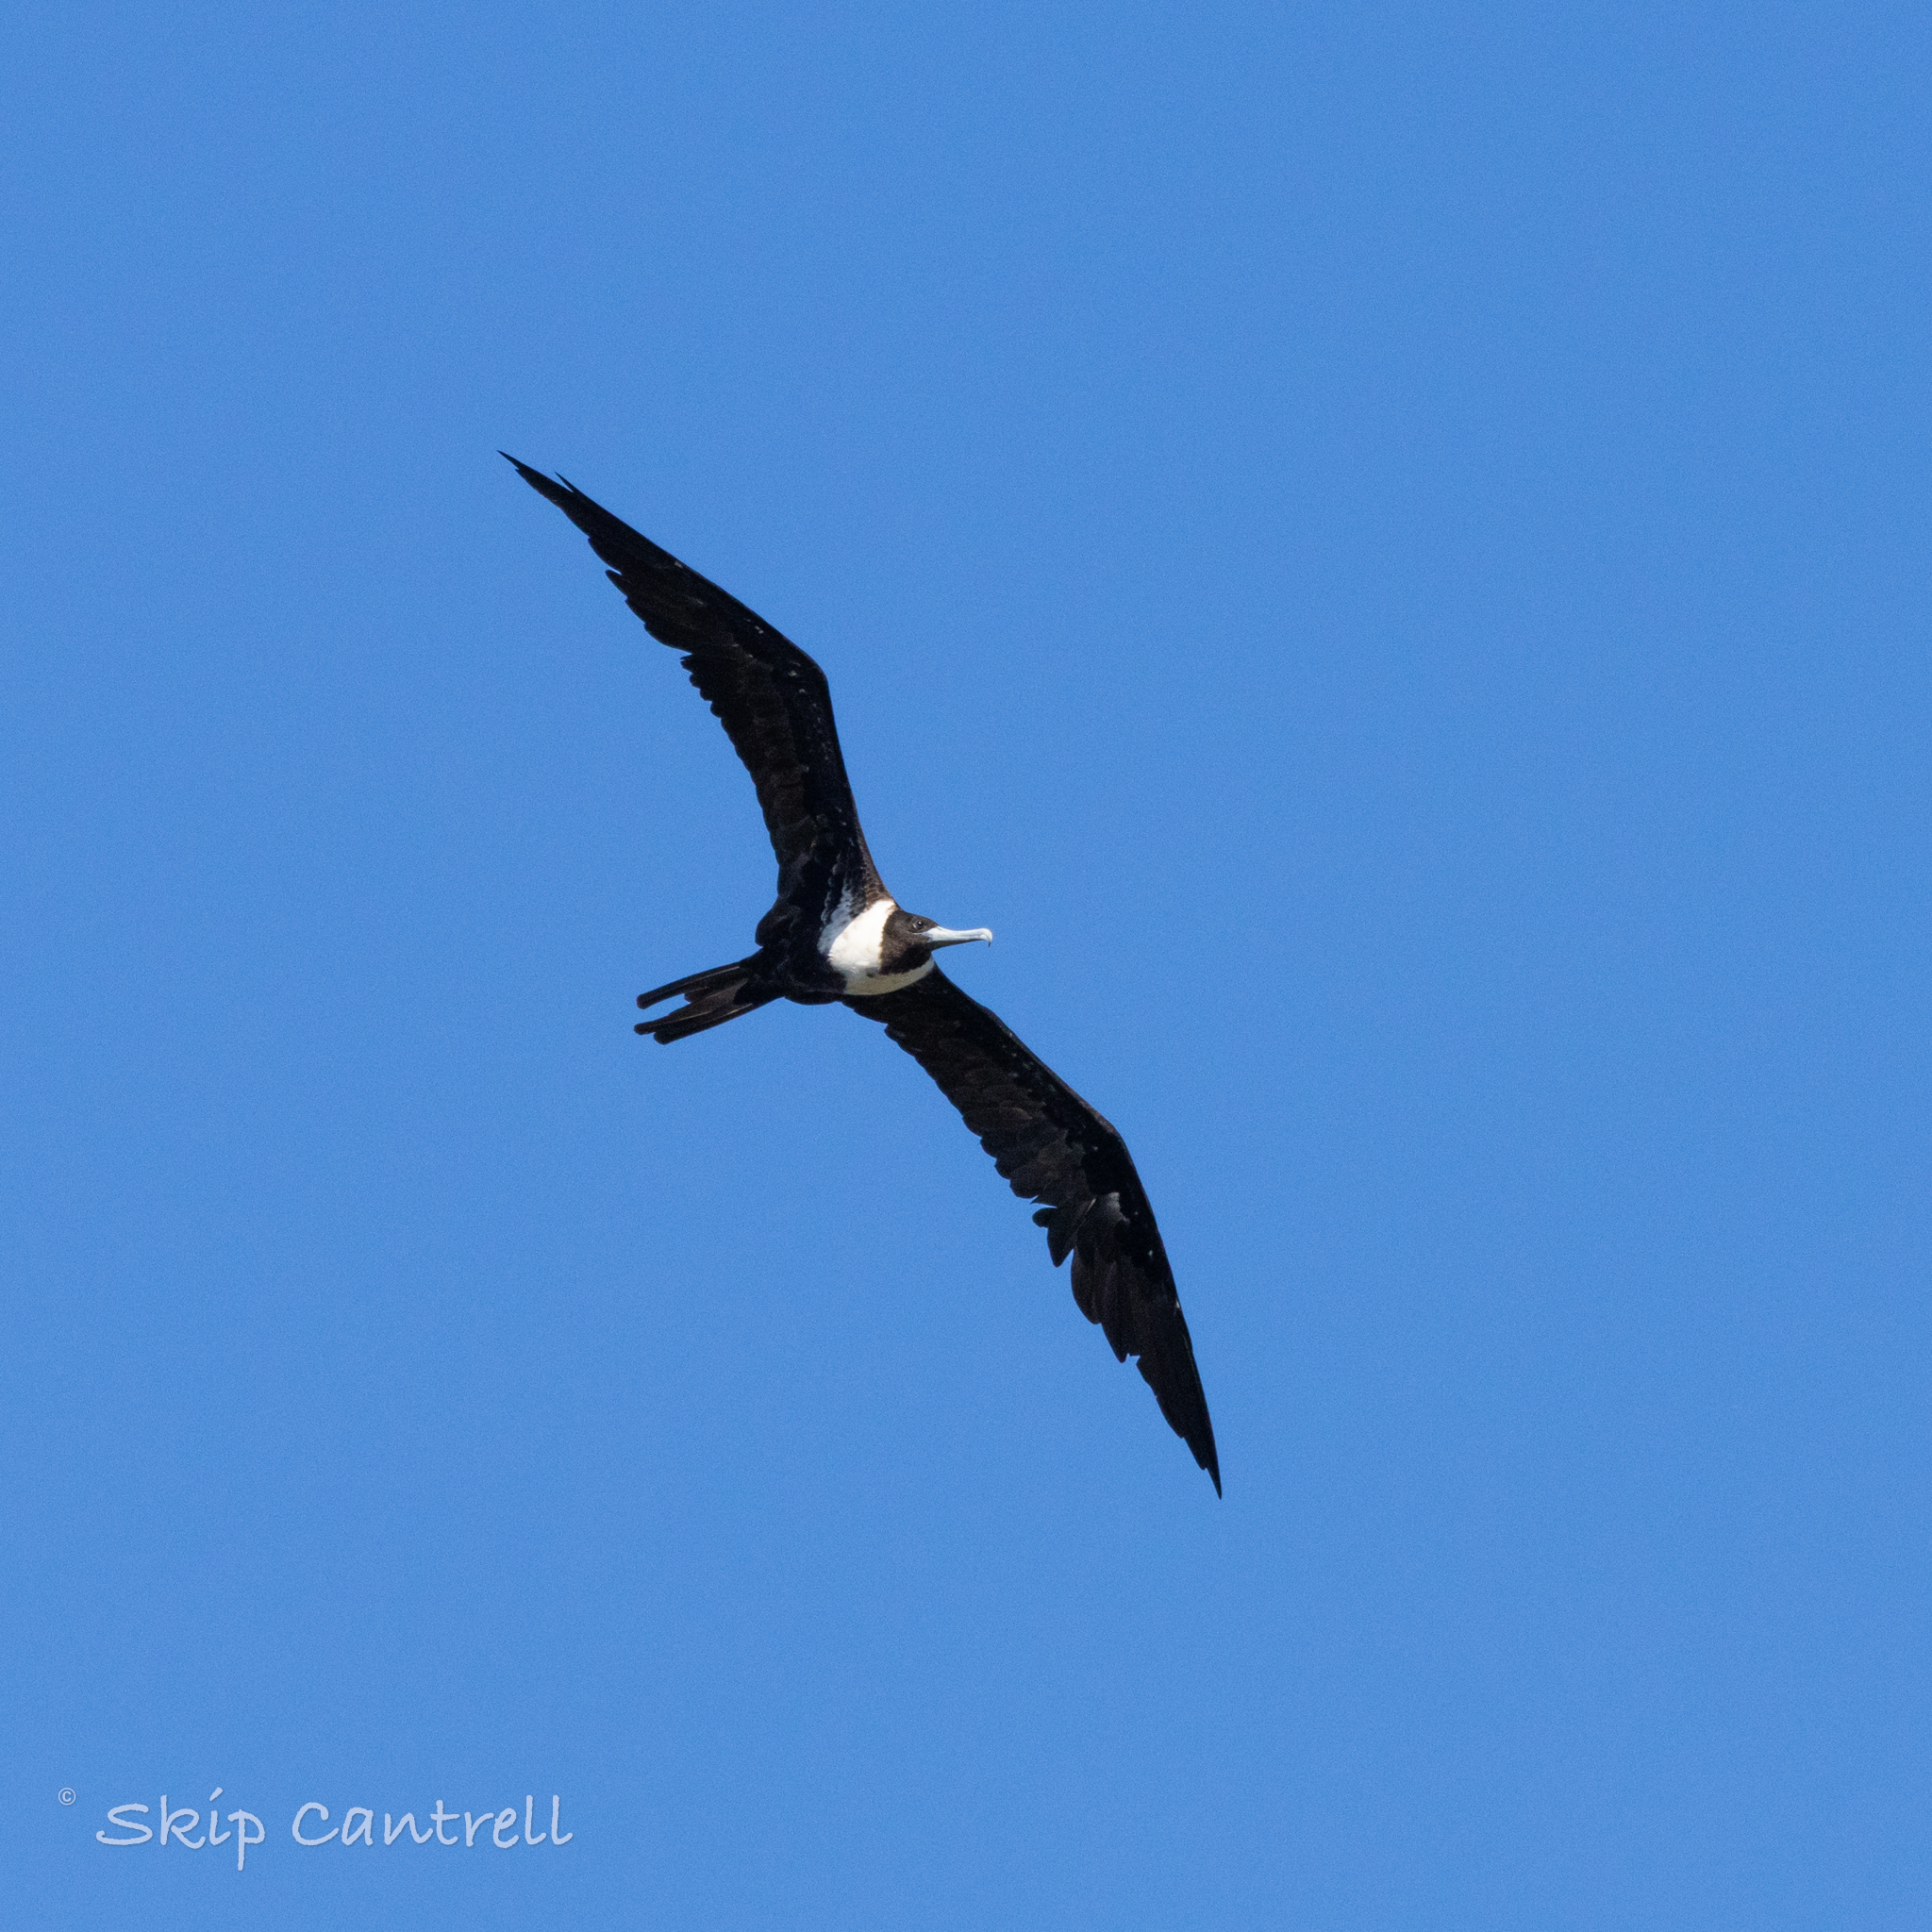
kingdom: Animalia
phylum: Chordata
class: Aves
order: Suliformes
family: Fregatidae
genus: Fregata
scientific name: Fregata magnificens
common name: Magnificent frigatebird
